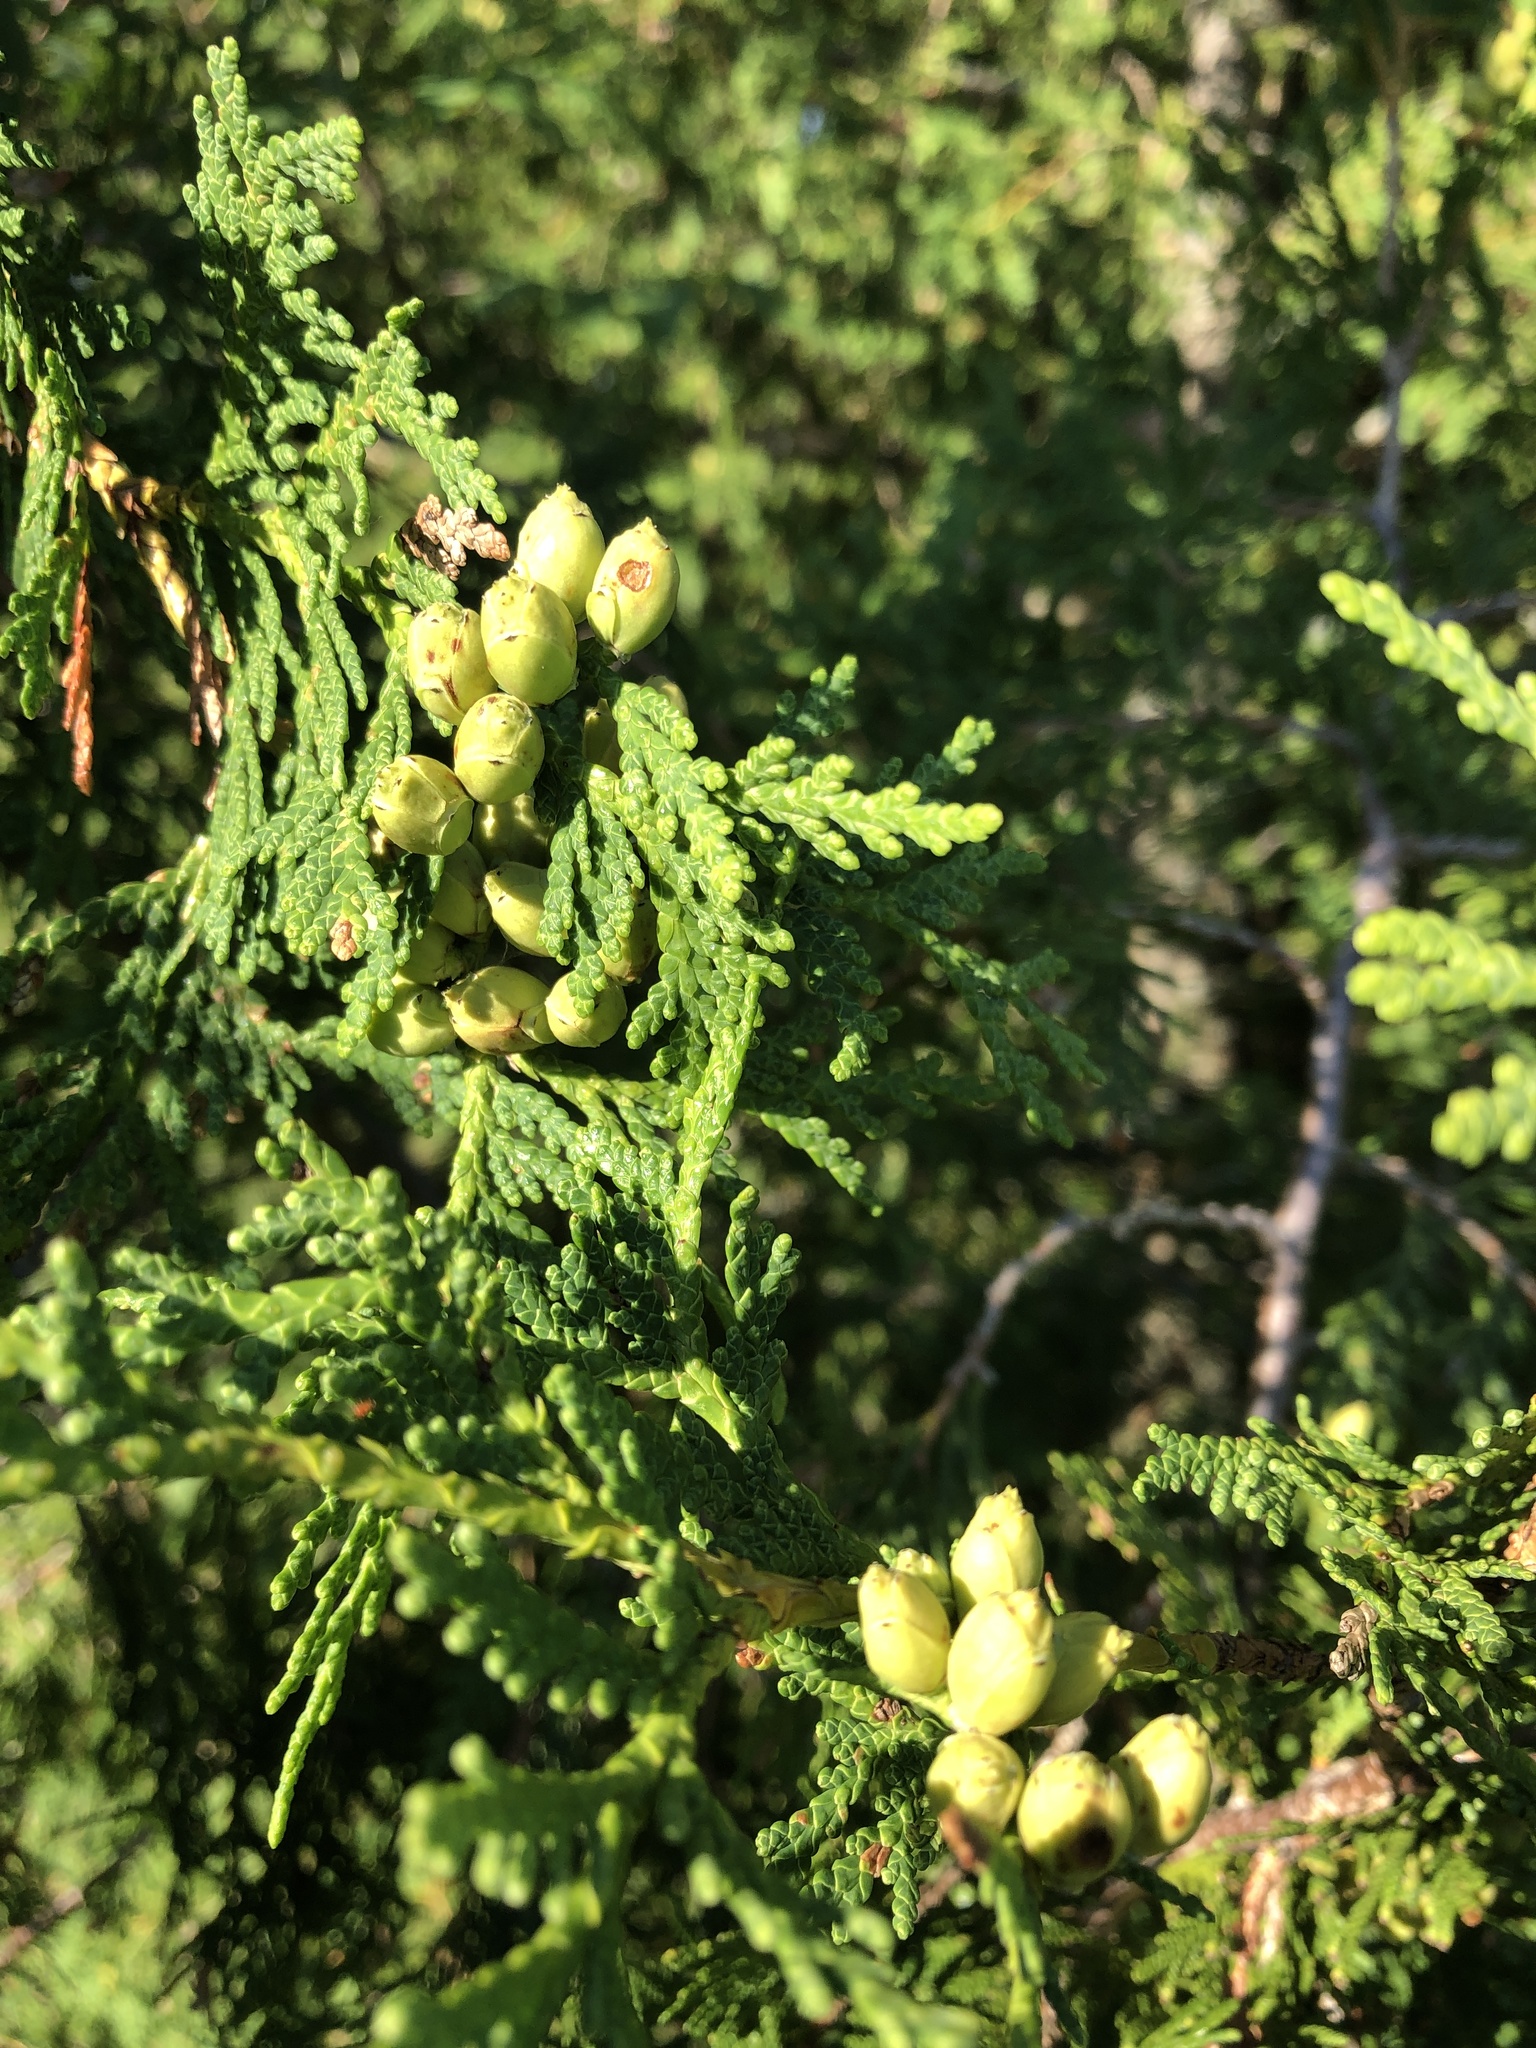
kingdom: Plantae
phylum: Tracheophyta
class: Pinopsida
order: Pinales
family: Cupressaceae
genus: Thuja
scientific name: Thuja occidentalis
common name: Northern white-cedar
